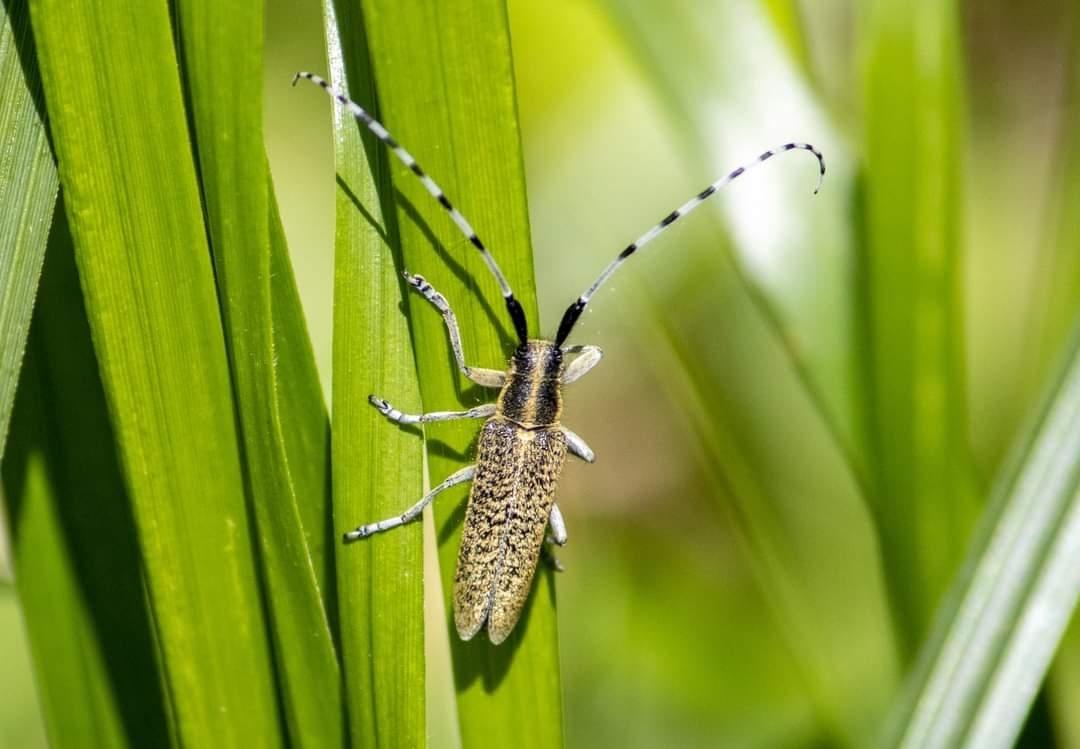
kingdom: Animalia
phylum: Arthropoda
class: Insecta
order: Coleoptera
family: Cerambycidae
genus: Agapanthia
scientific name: Agapanthia villosoviridescens
